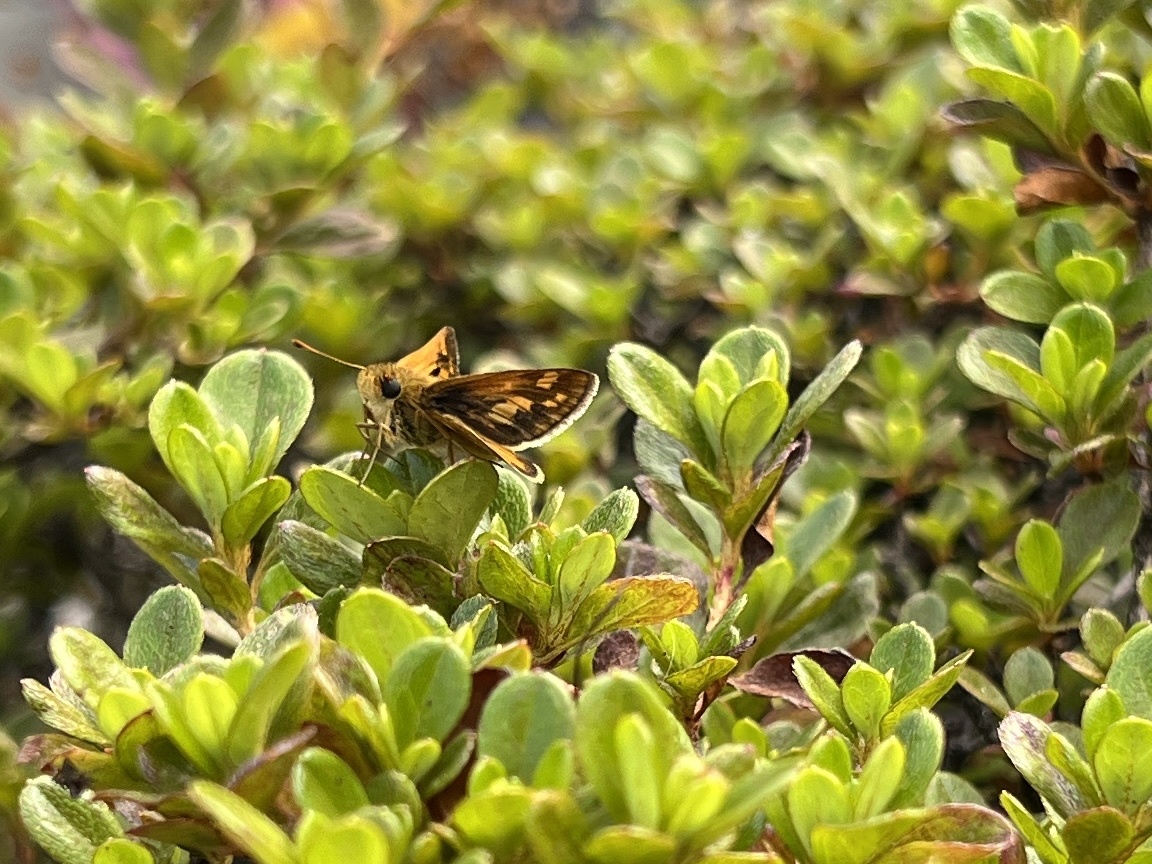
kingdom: Animalia
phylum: Arthropoda
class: Insecta
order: Lepidoptera
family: Hesperiidae
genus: Polites
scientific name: Polites coras
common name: Peck's skipper
